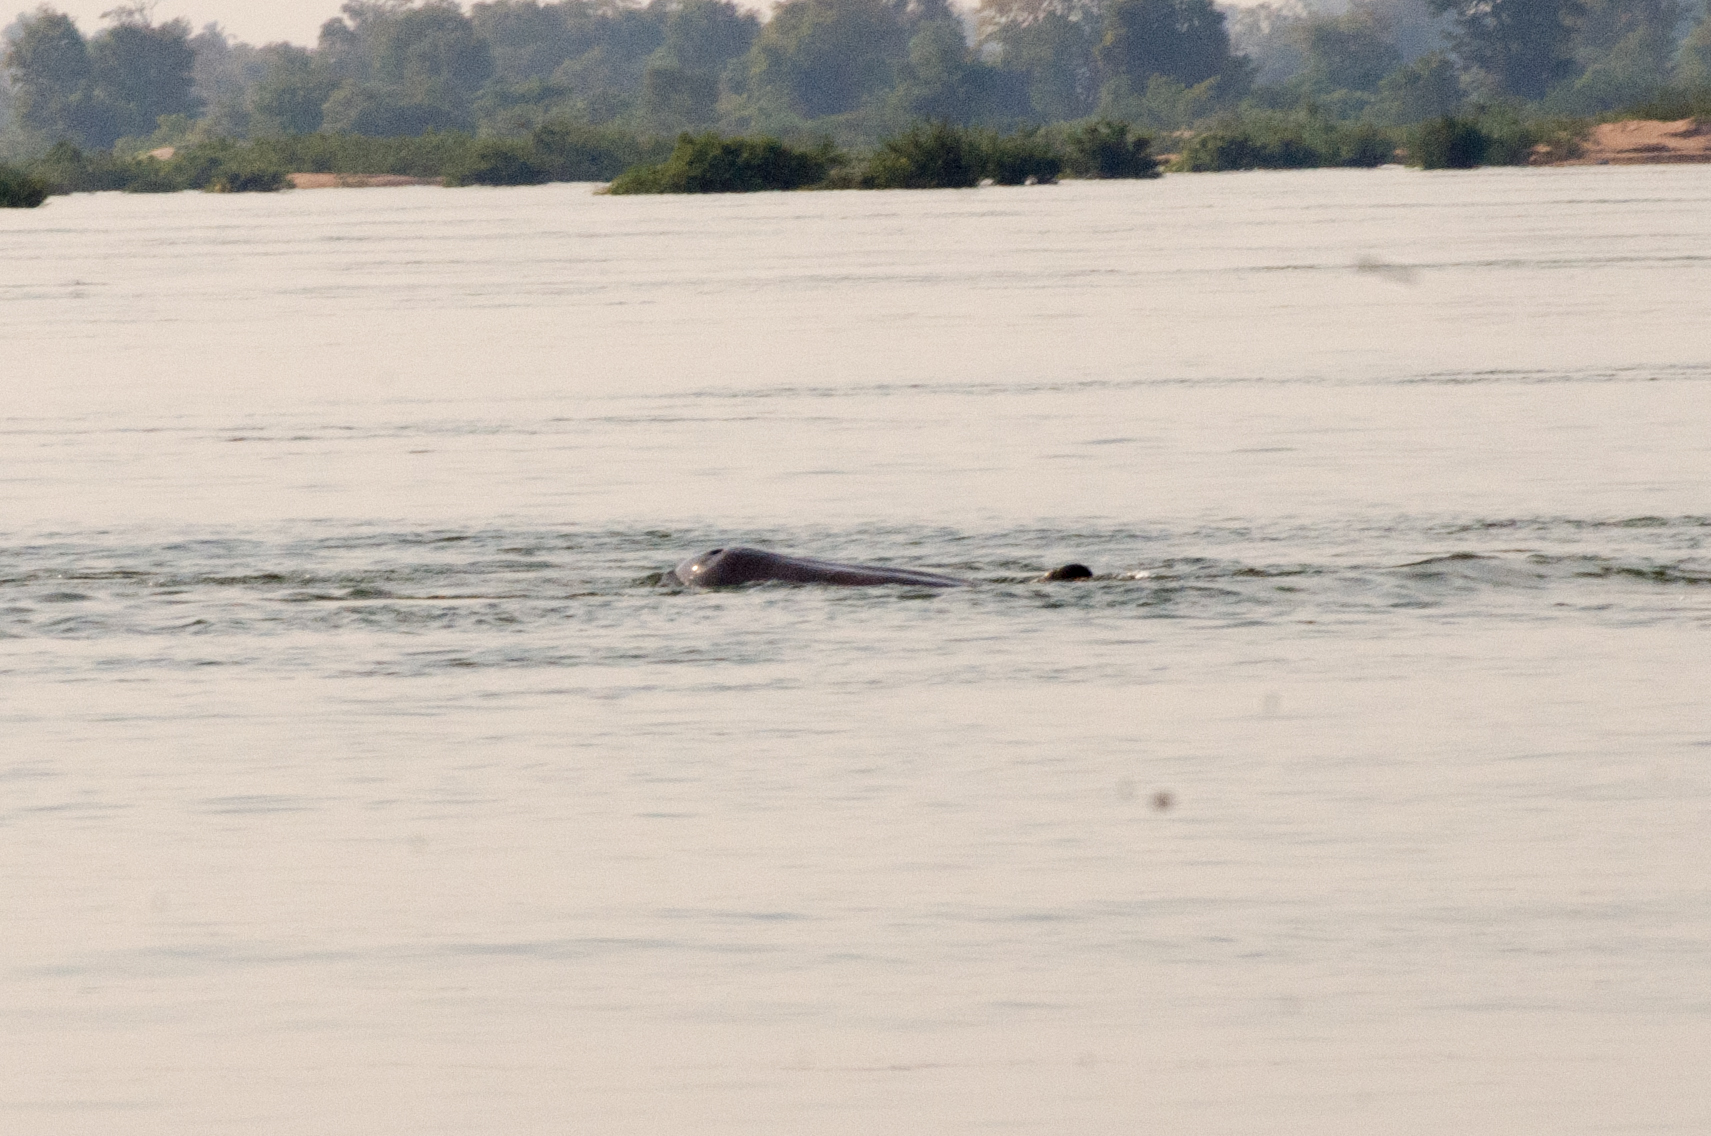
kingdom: Animalia
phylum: Chordata
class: Mammalia
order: Cetacea
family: Delphinidae
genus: Orcaella
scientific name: Orcaella brevirostris
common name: Irrawaddy dolphin
